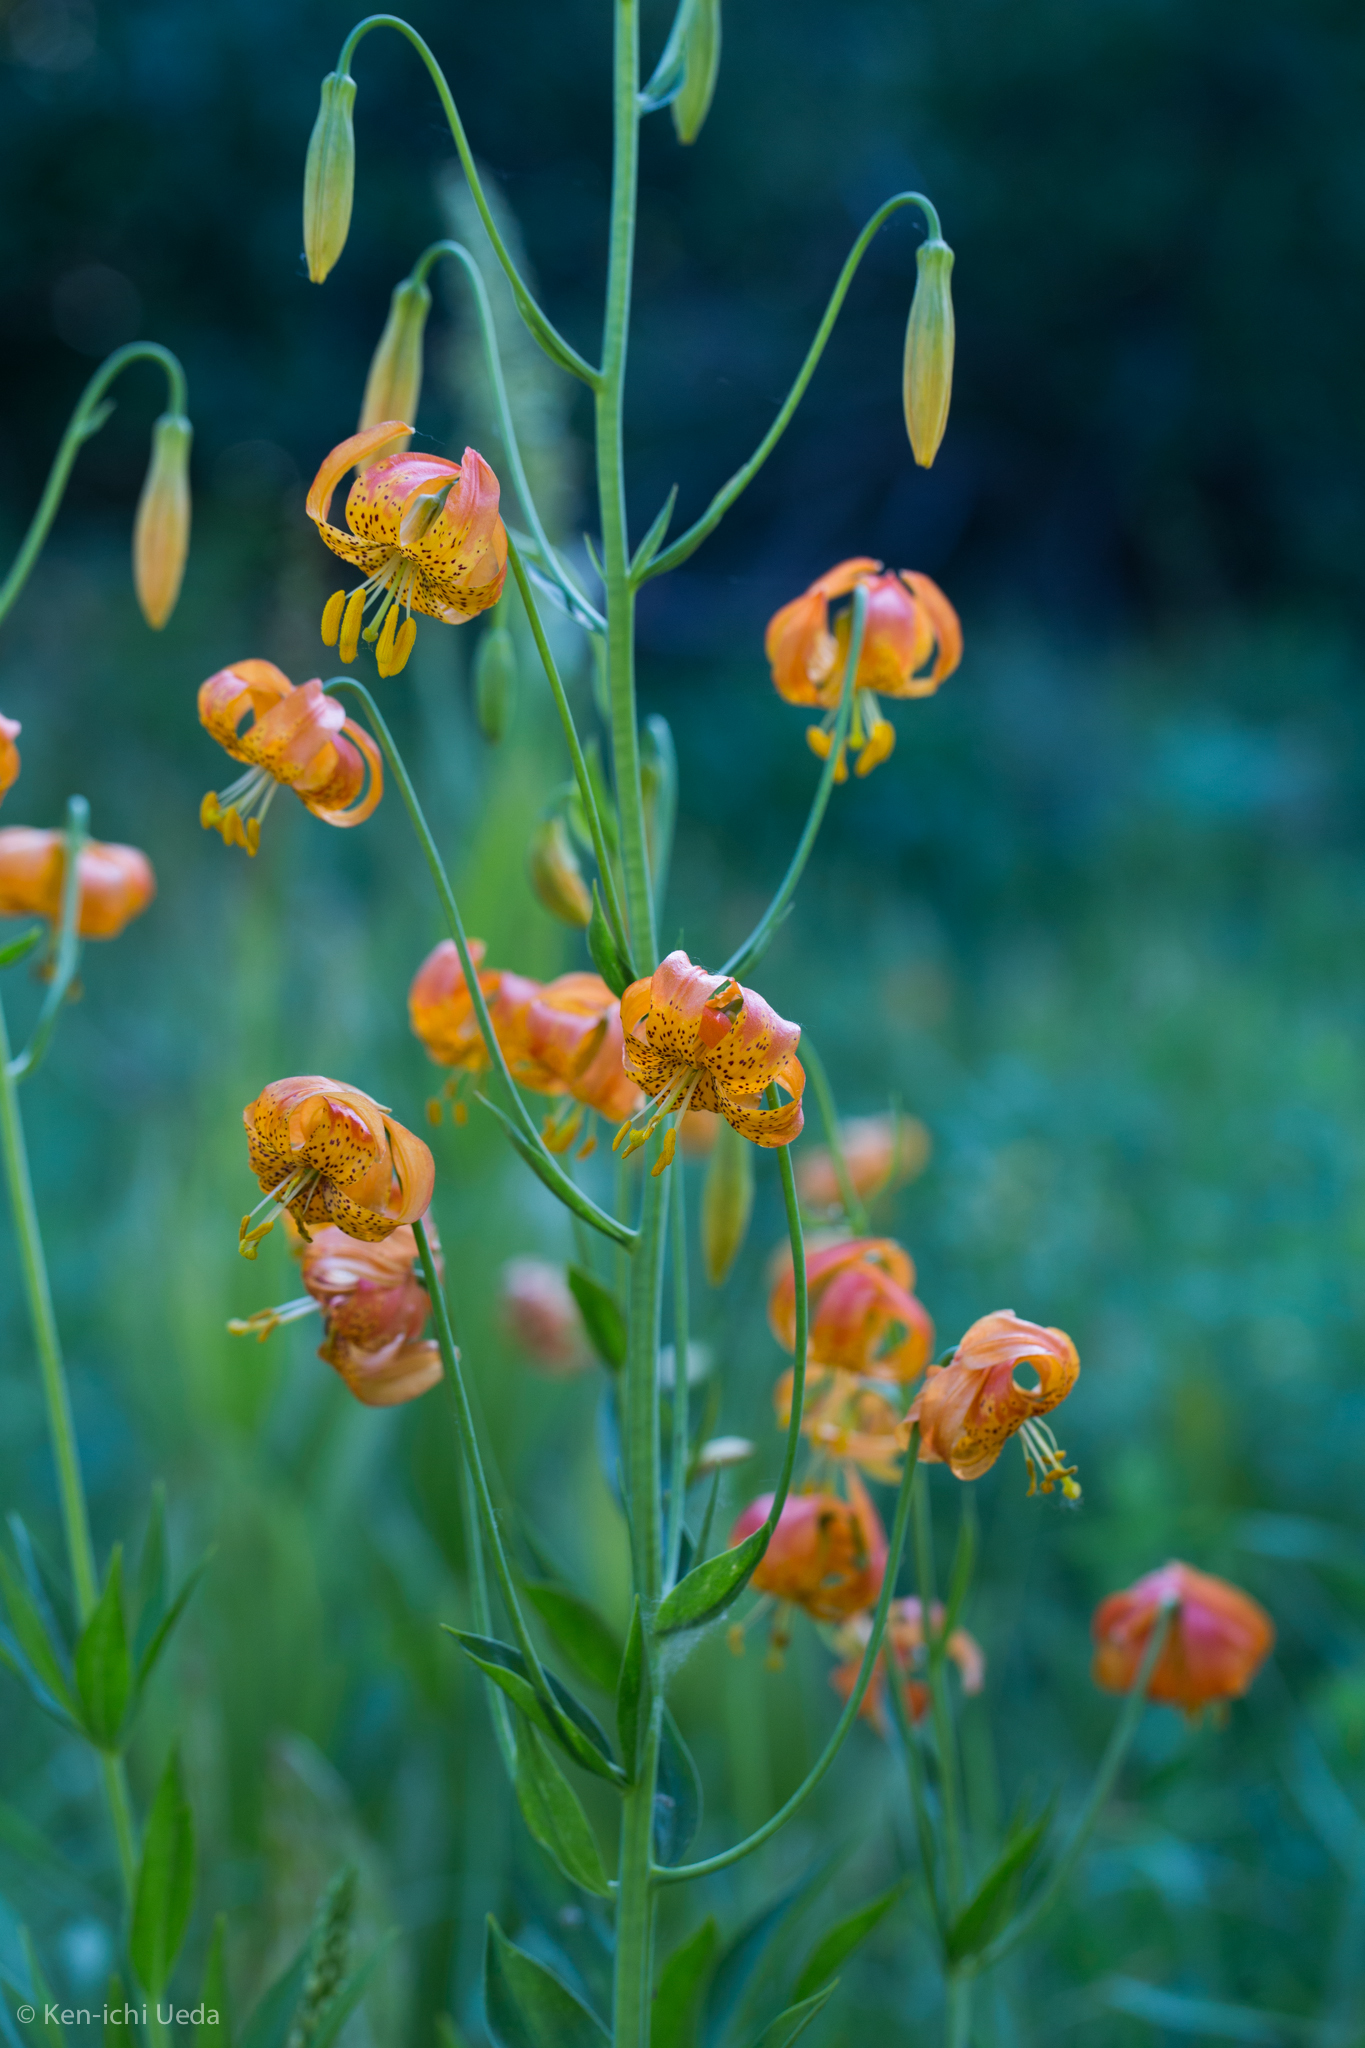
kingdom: Plantae
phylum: Tracheophyta
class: Liliopsida
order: Liliales
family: Liliaceae
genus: Lilium
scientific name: Lilium pardalinum
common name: Panther lily
